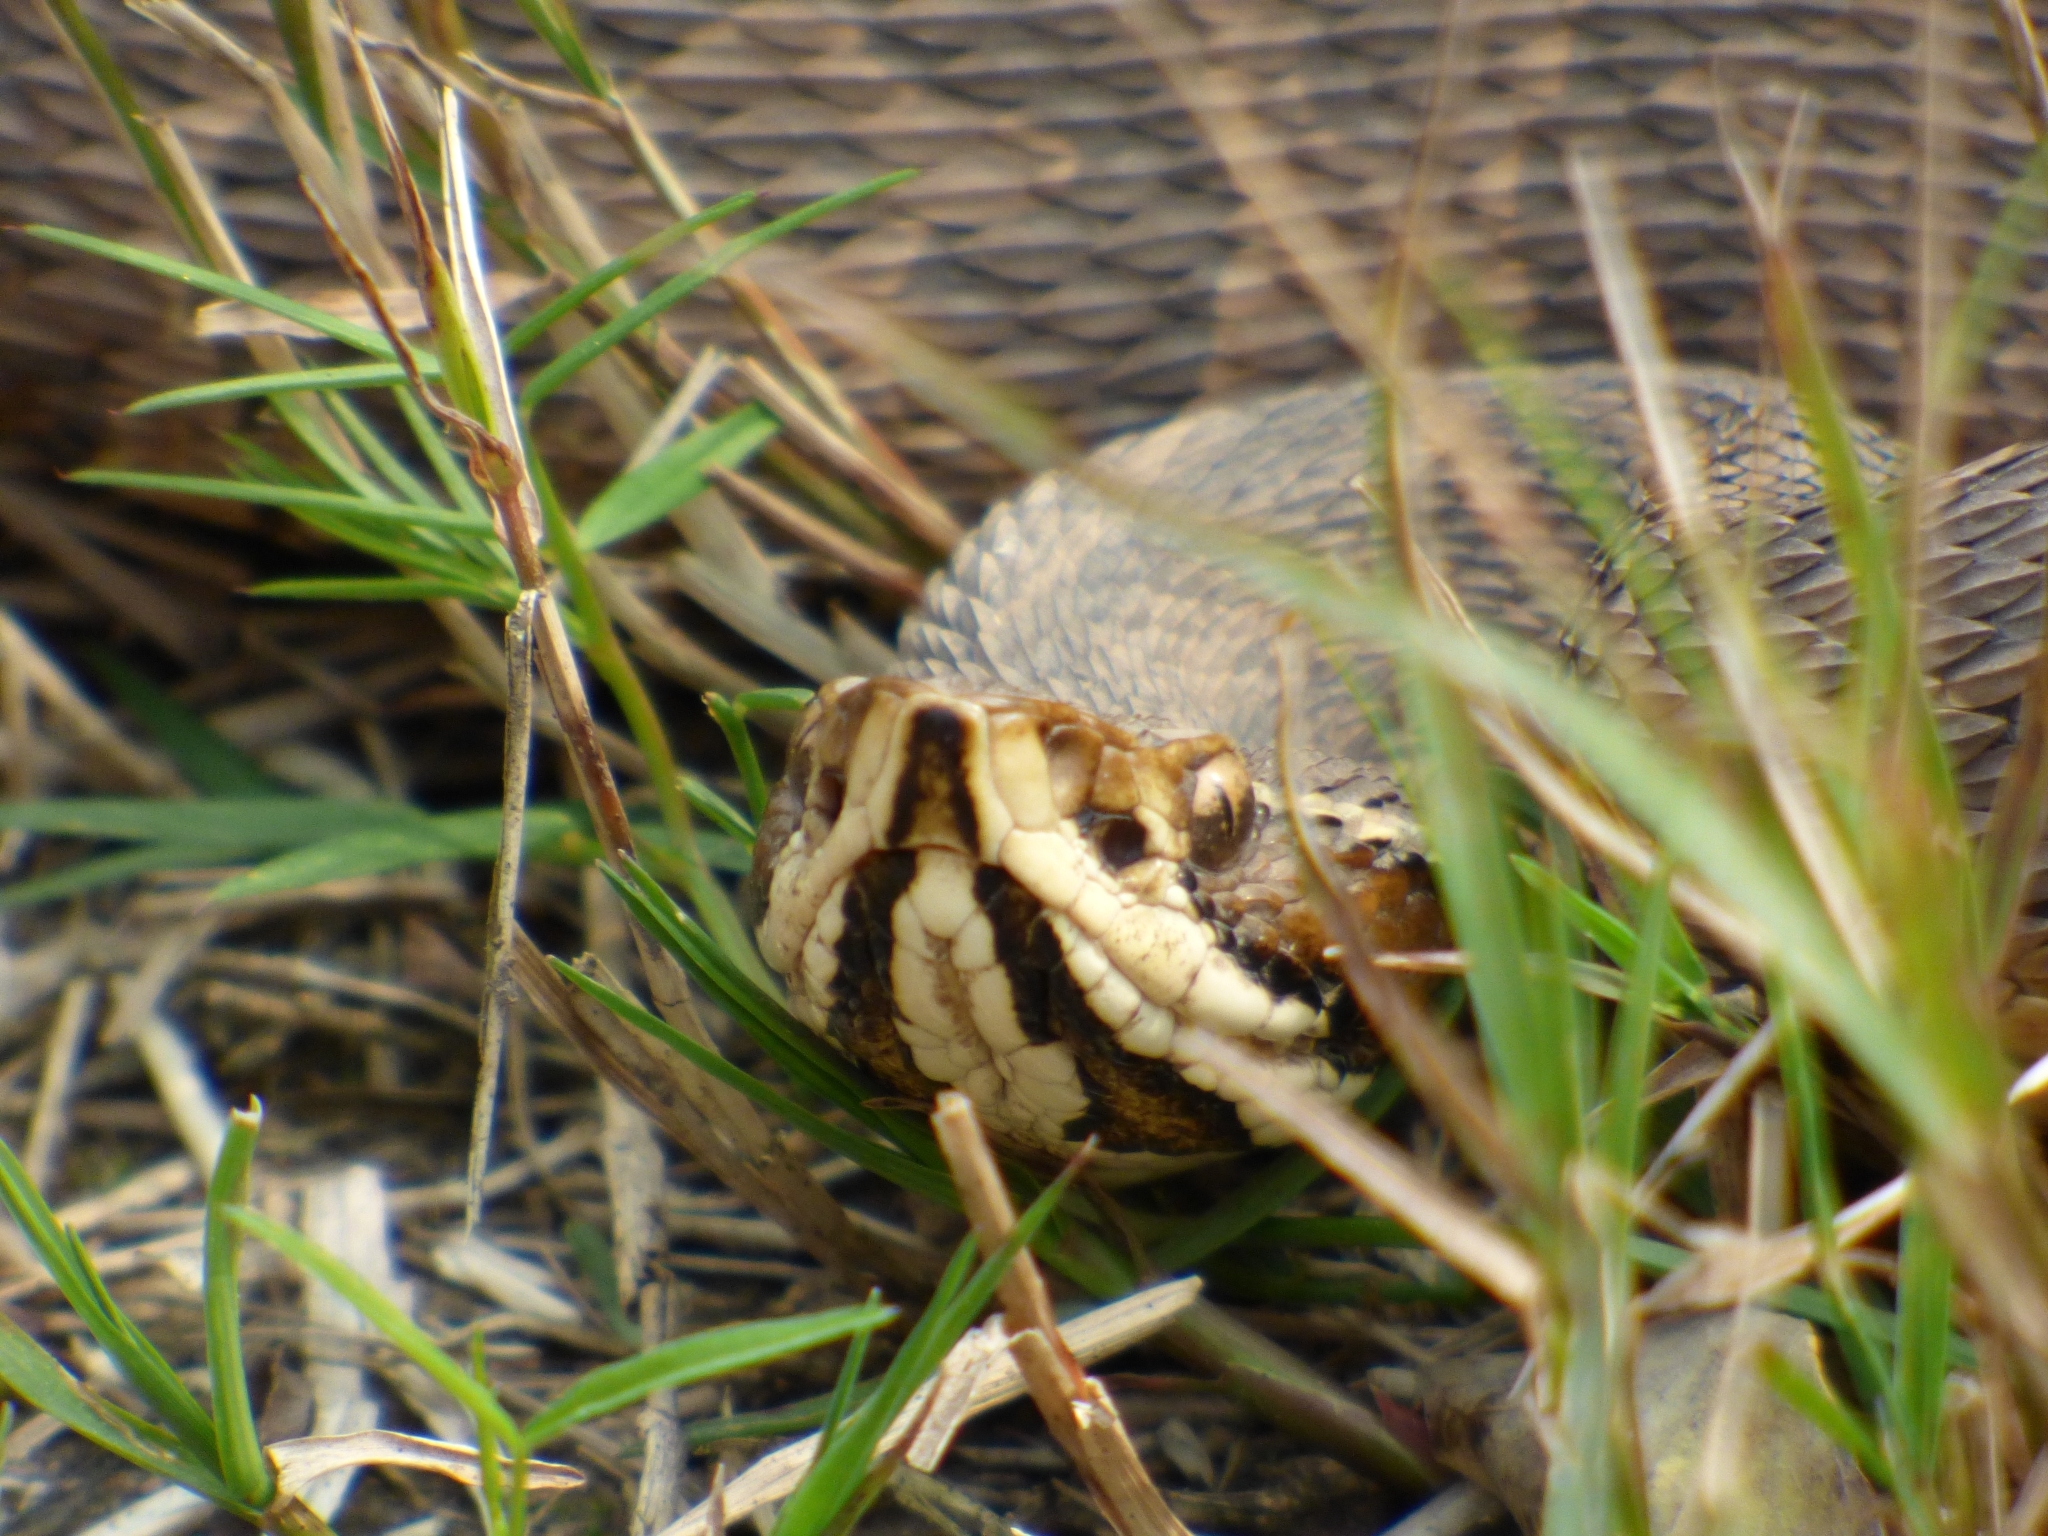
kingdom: Animalia
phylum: Chordata
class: Squamata
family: Viperidae
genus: Bothrops
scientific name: Bothrops alternatus
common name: Urutu
